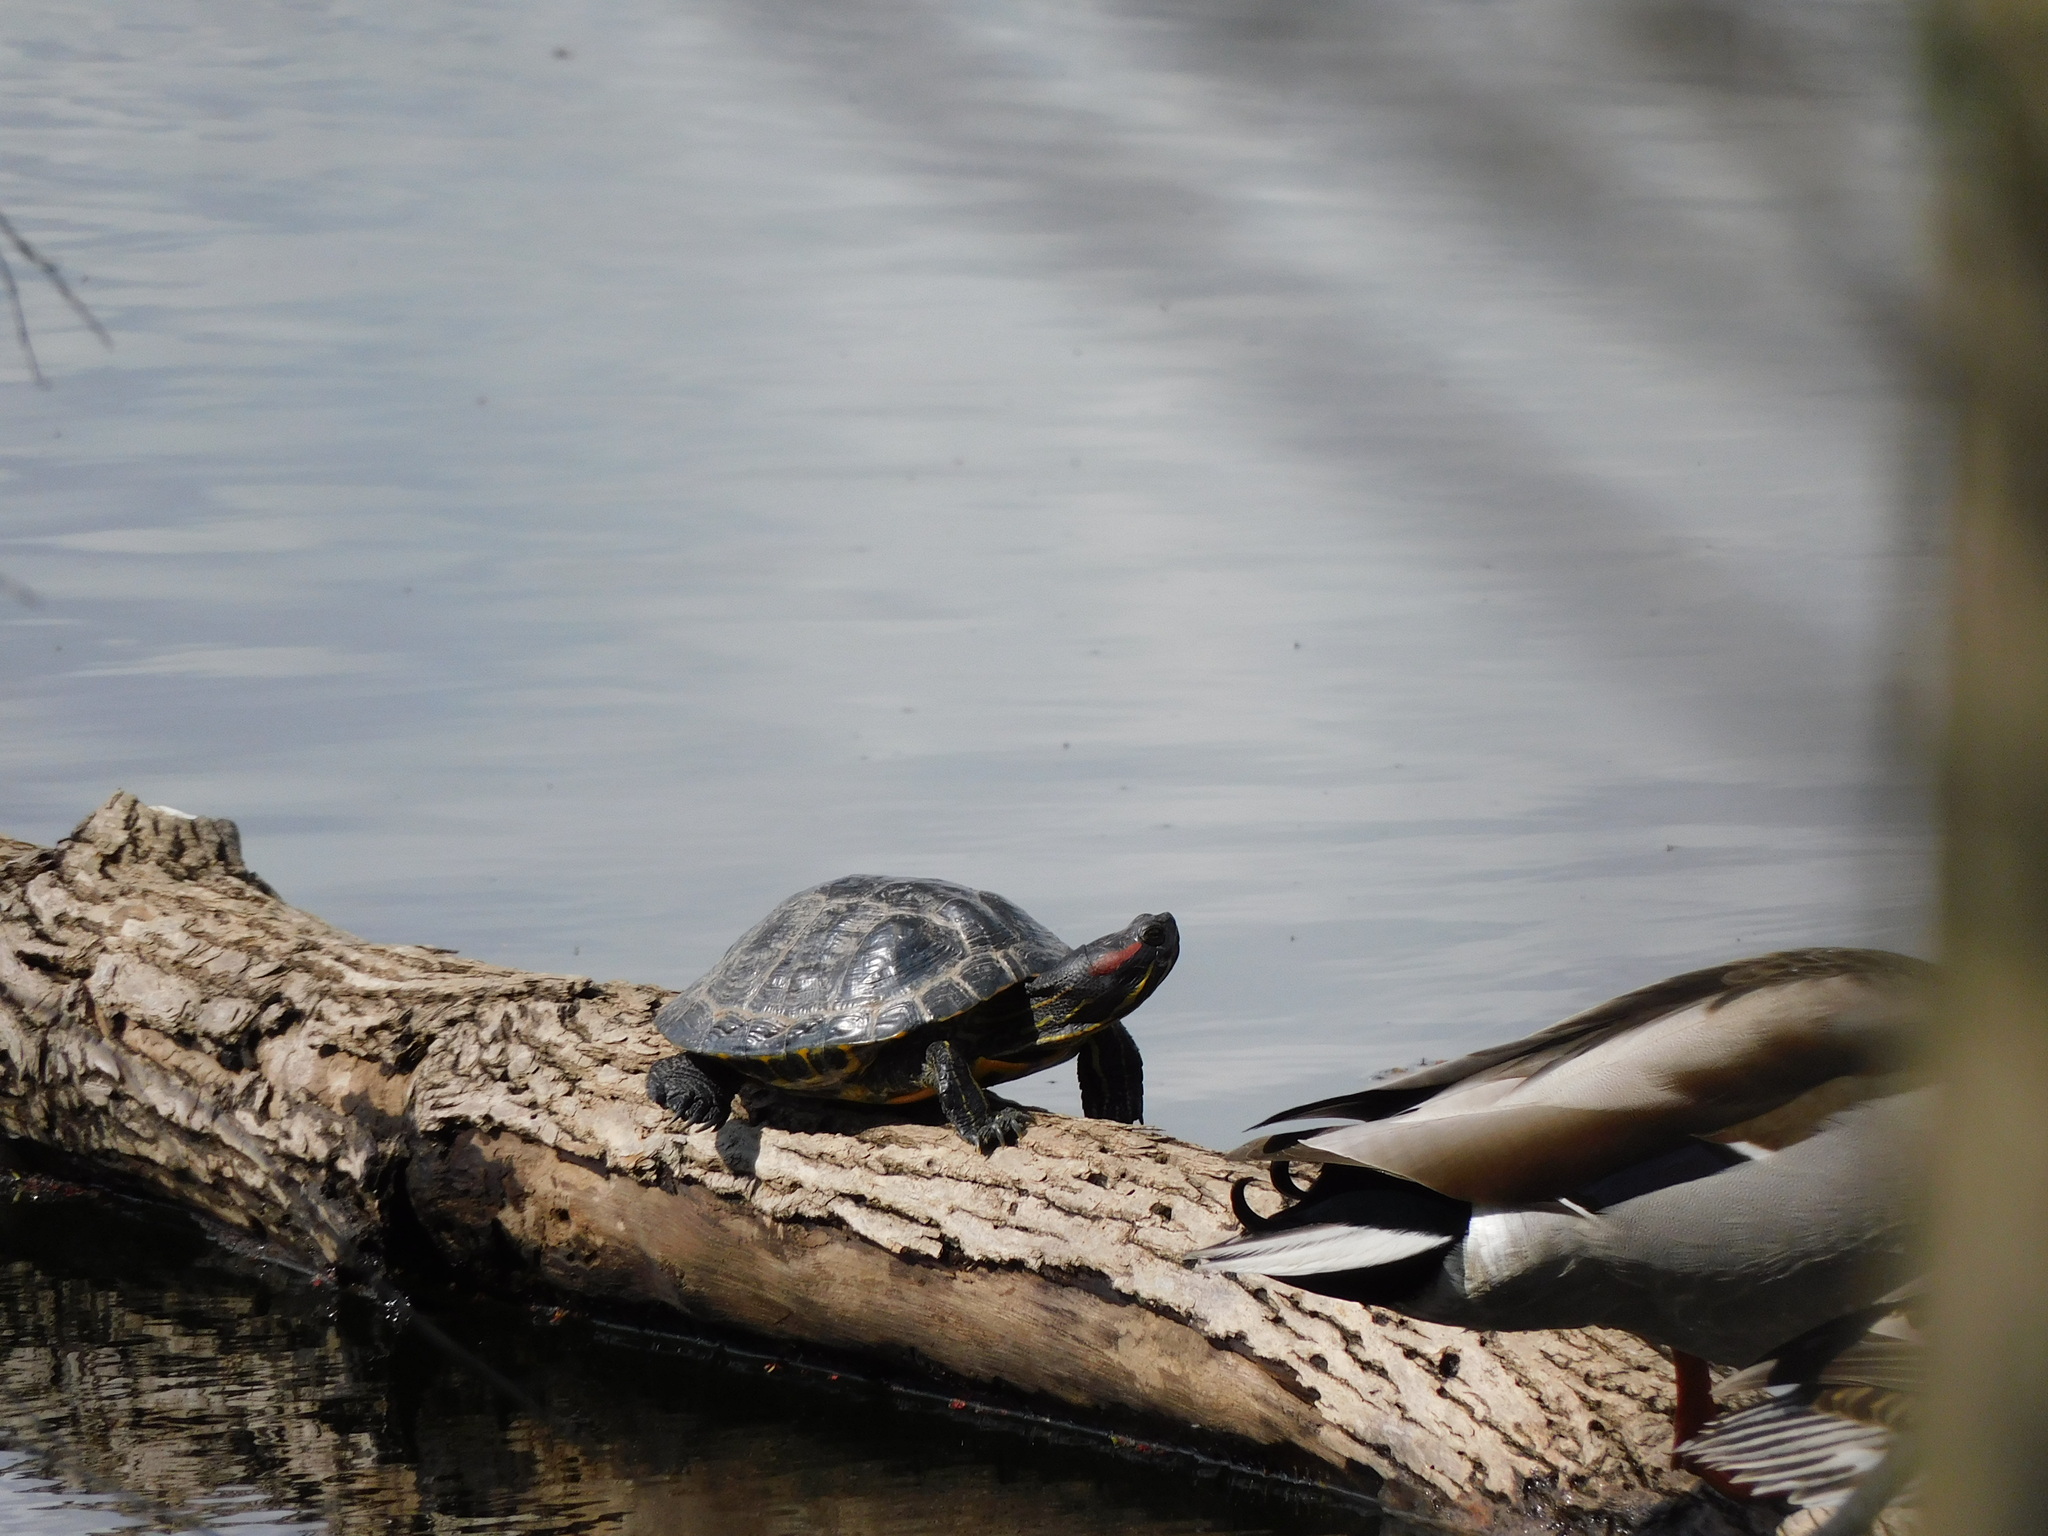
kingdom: Animalia
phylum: Chordata
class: Testudines
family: Emydidae
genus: Trachemys
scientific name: Trachemys scripta
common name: Slider
